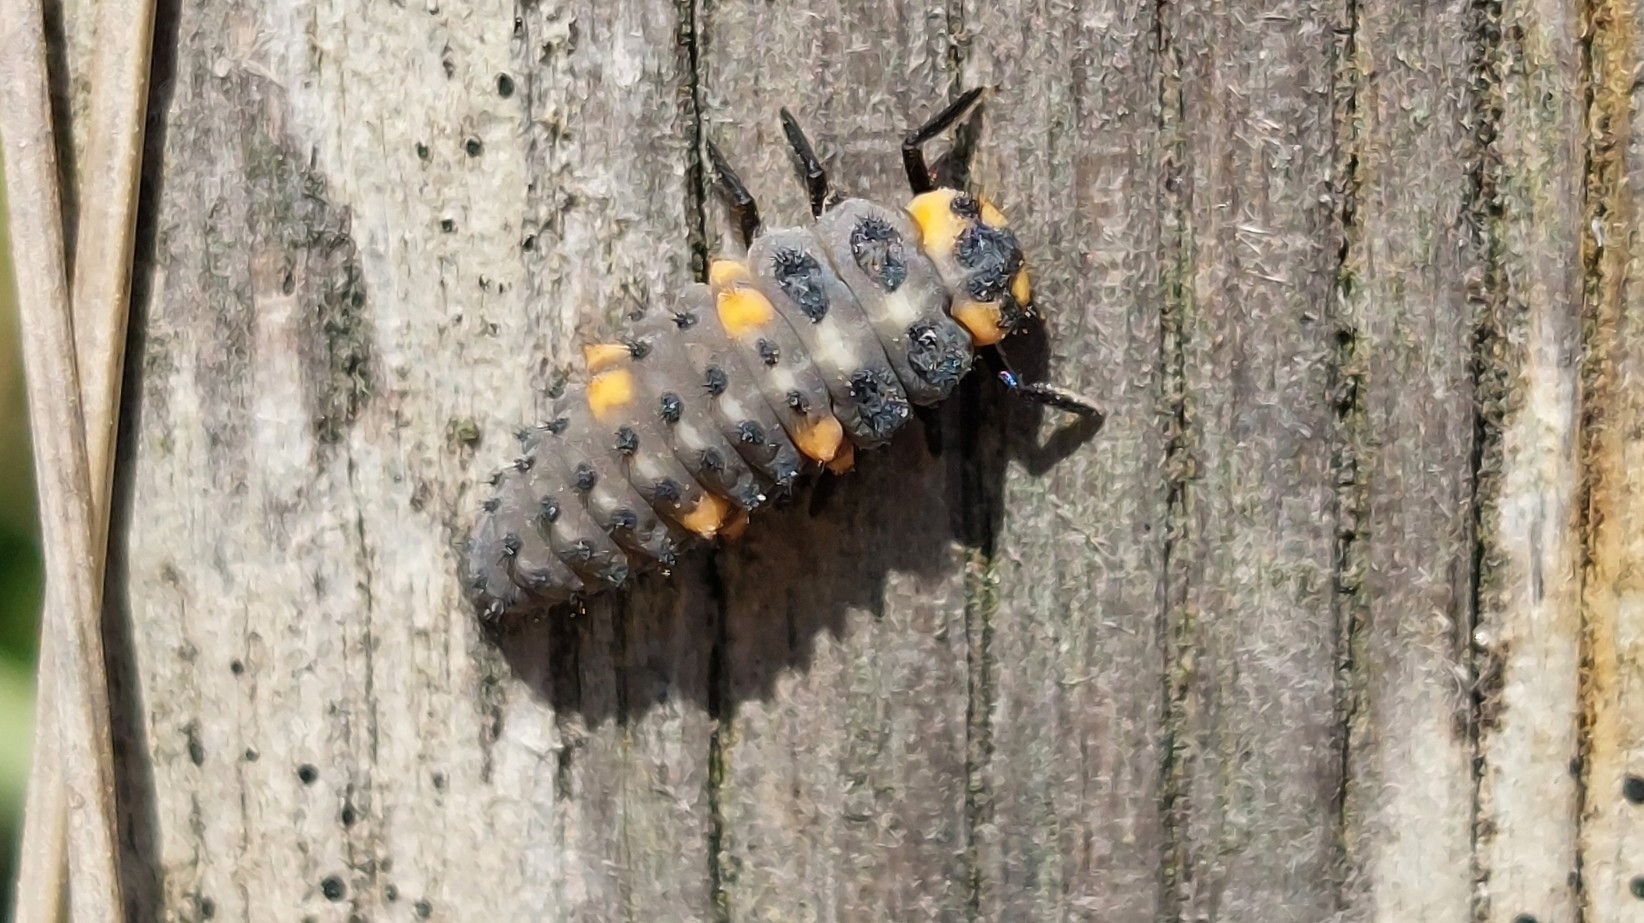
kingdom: Animalia
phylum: Arthropoda
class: Insecta
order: Coleoptera
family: Coccinellidae
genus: Coccinella
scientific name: Coccinella septempunctata
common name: Sevenspotted lady beetle
